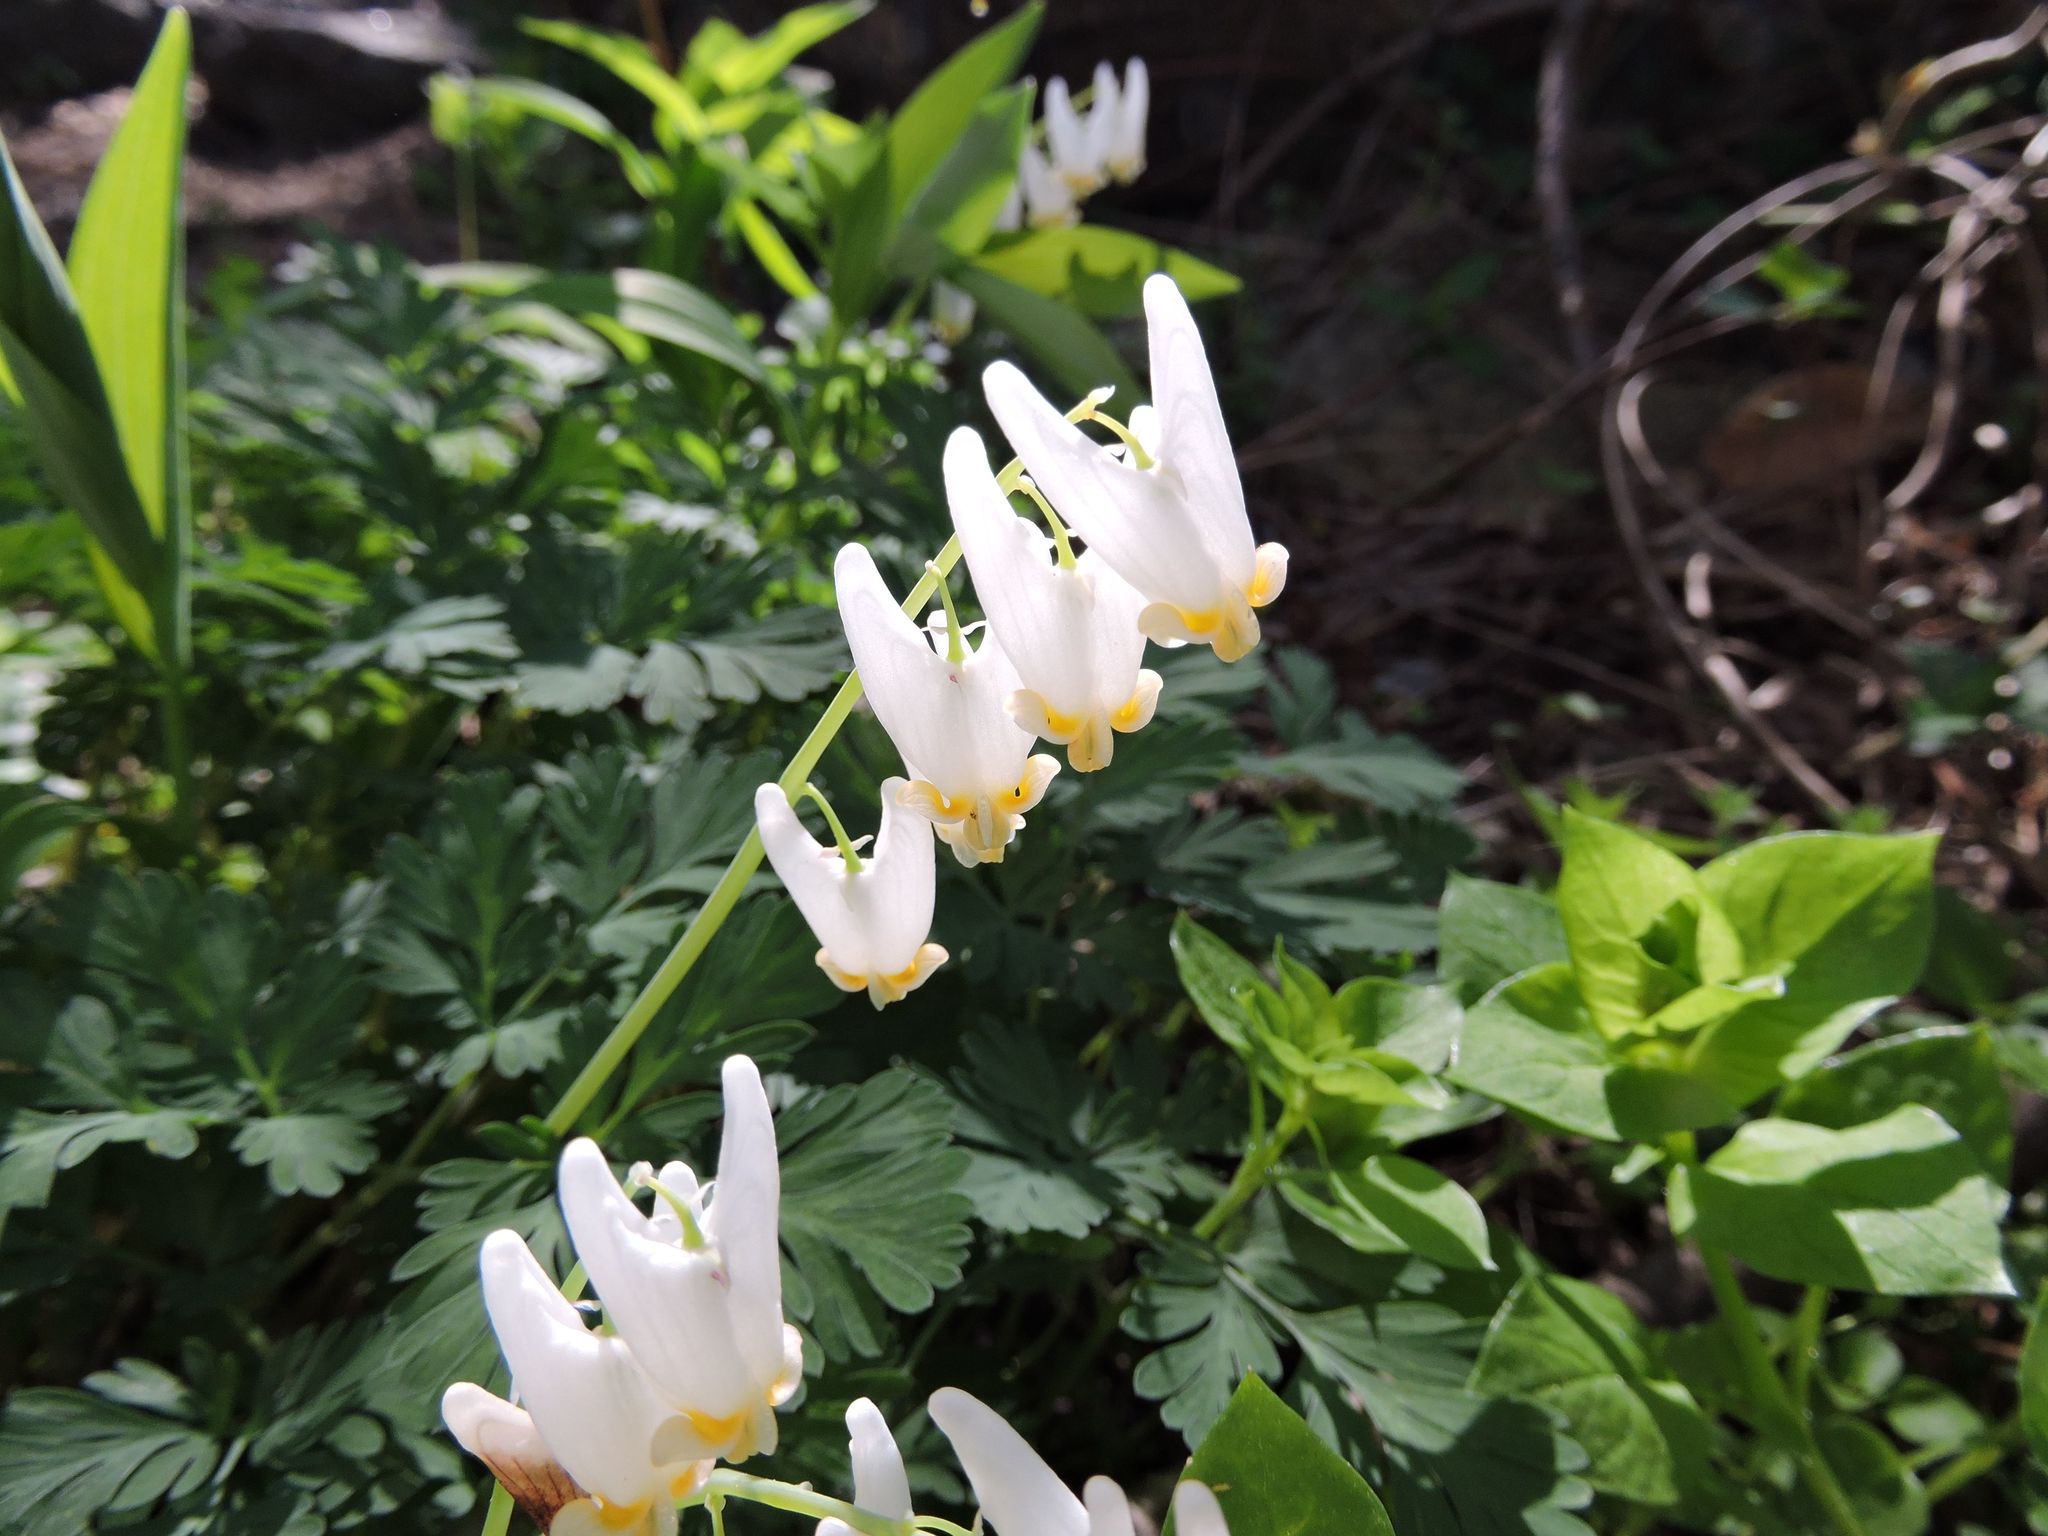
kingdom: Plantae
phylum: Tracheophyta
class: Magnoliopsida
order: Ranunculales
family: Papaveraceae
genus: Dicentra
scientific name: Dicentra cucullaria
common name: Dutchman's breeches
